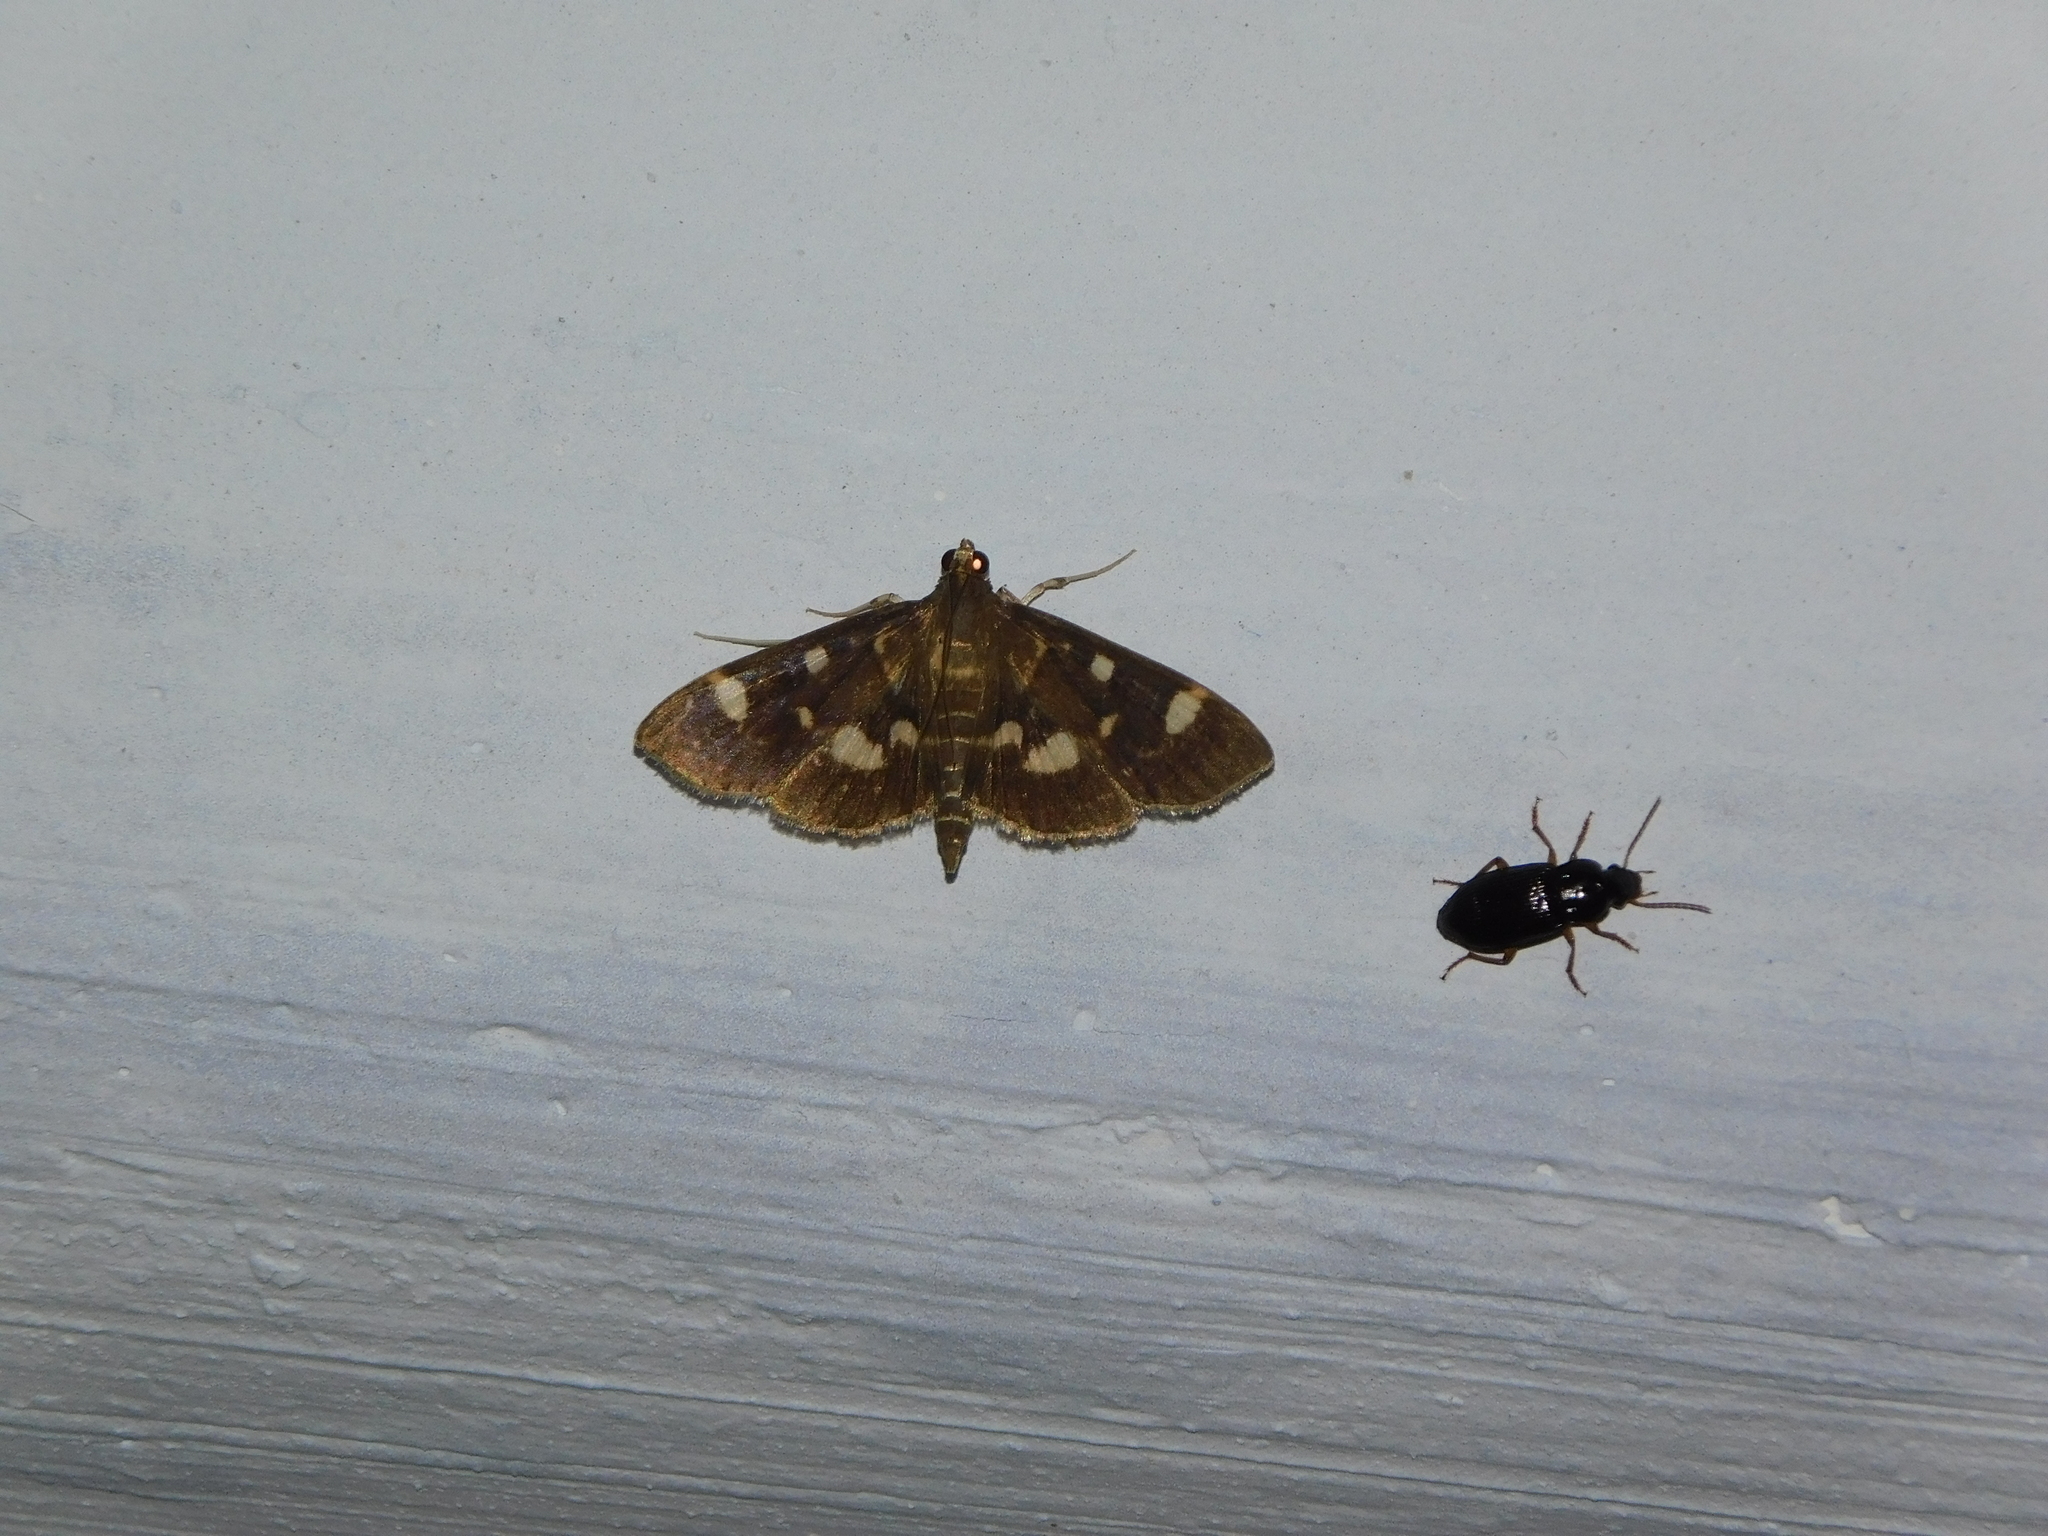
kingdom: Animalia
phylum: Arthropoda
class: Insecta
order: Lepidoptera
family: Crambidae
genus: Herpetogramma
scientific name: Herpetogramma luctuosalis
